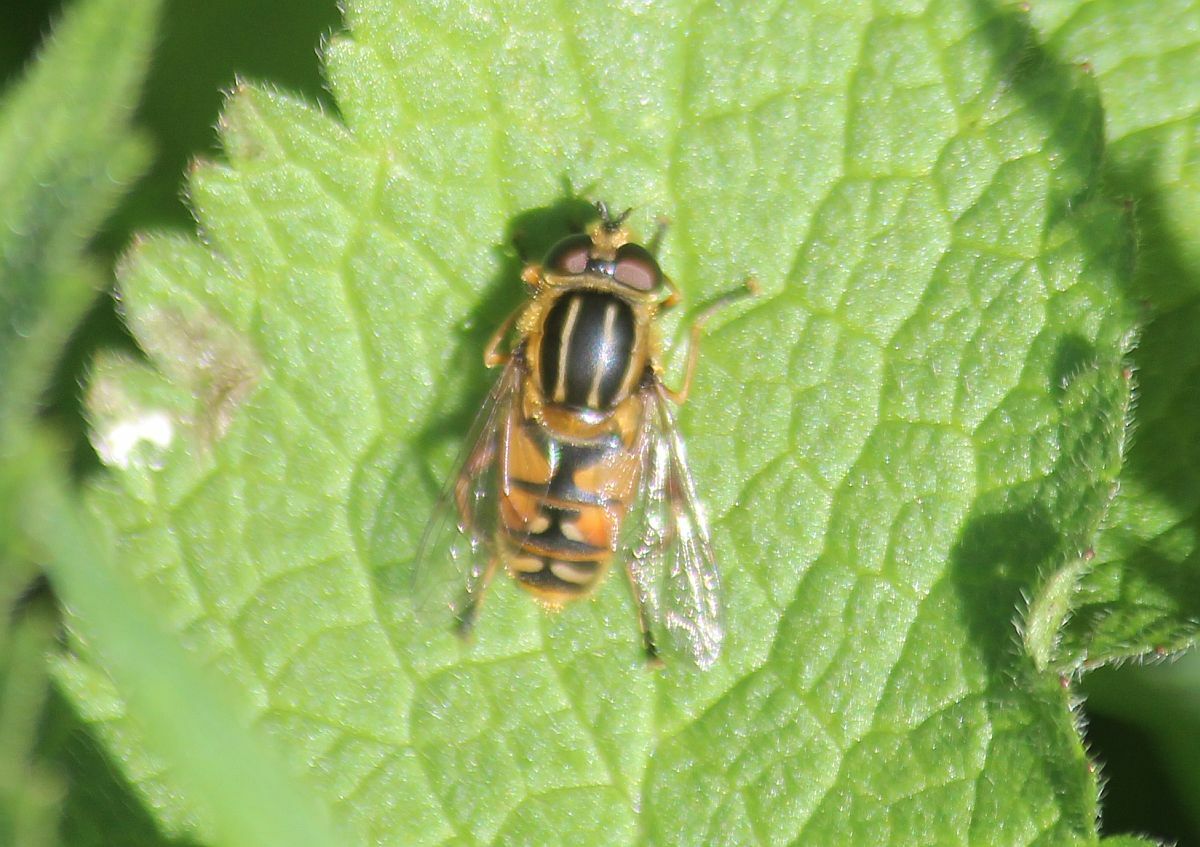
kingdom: Animalia
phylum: Arthropoda
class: Insecta
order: Diptera
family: Syrphidae
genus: Helophilus
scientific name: Helophilus pendulus
